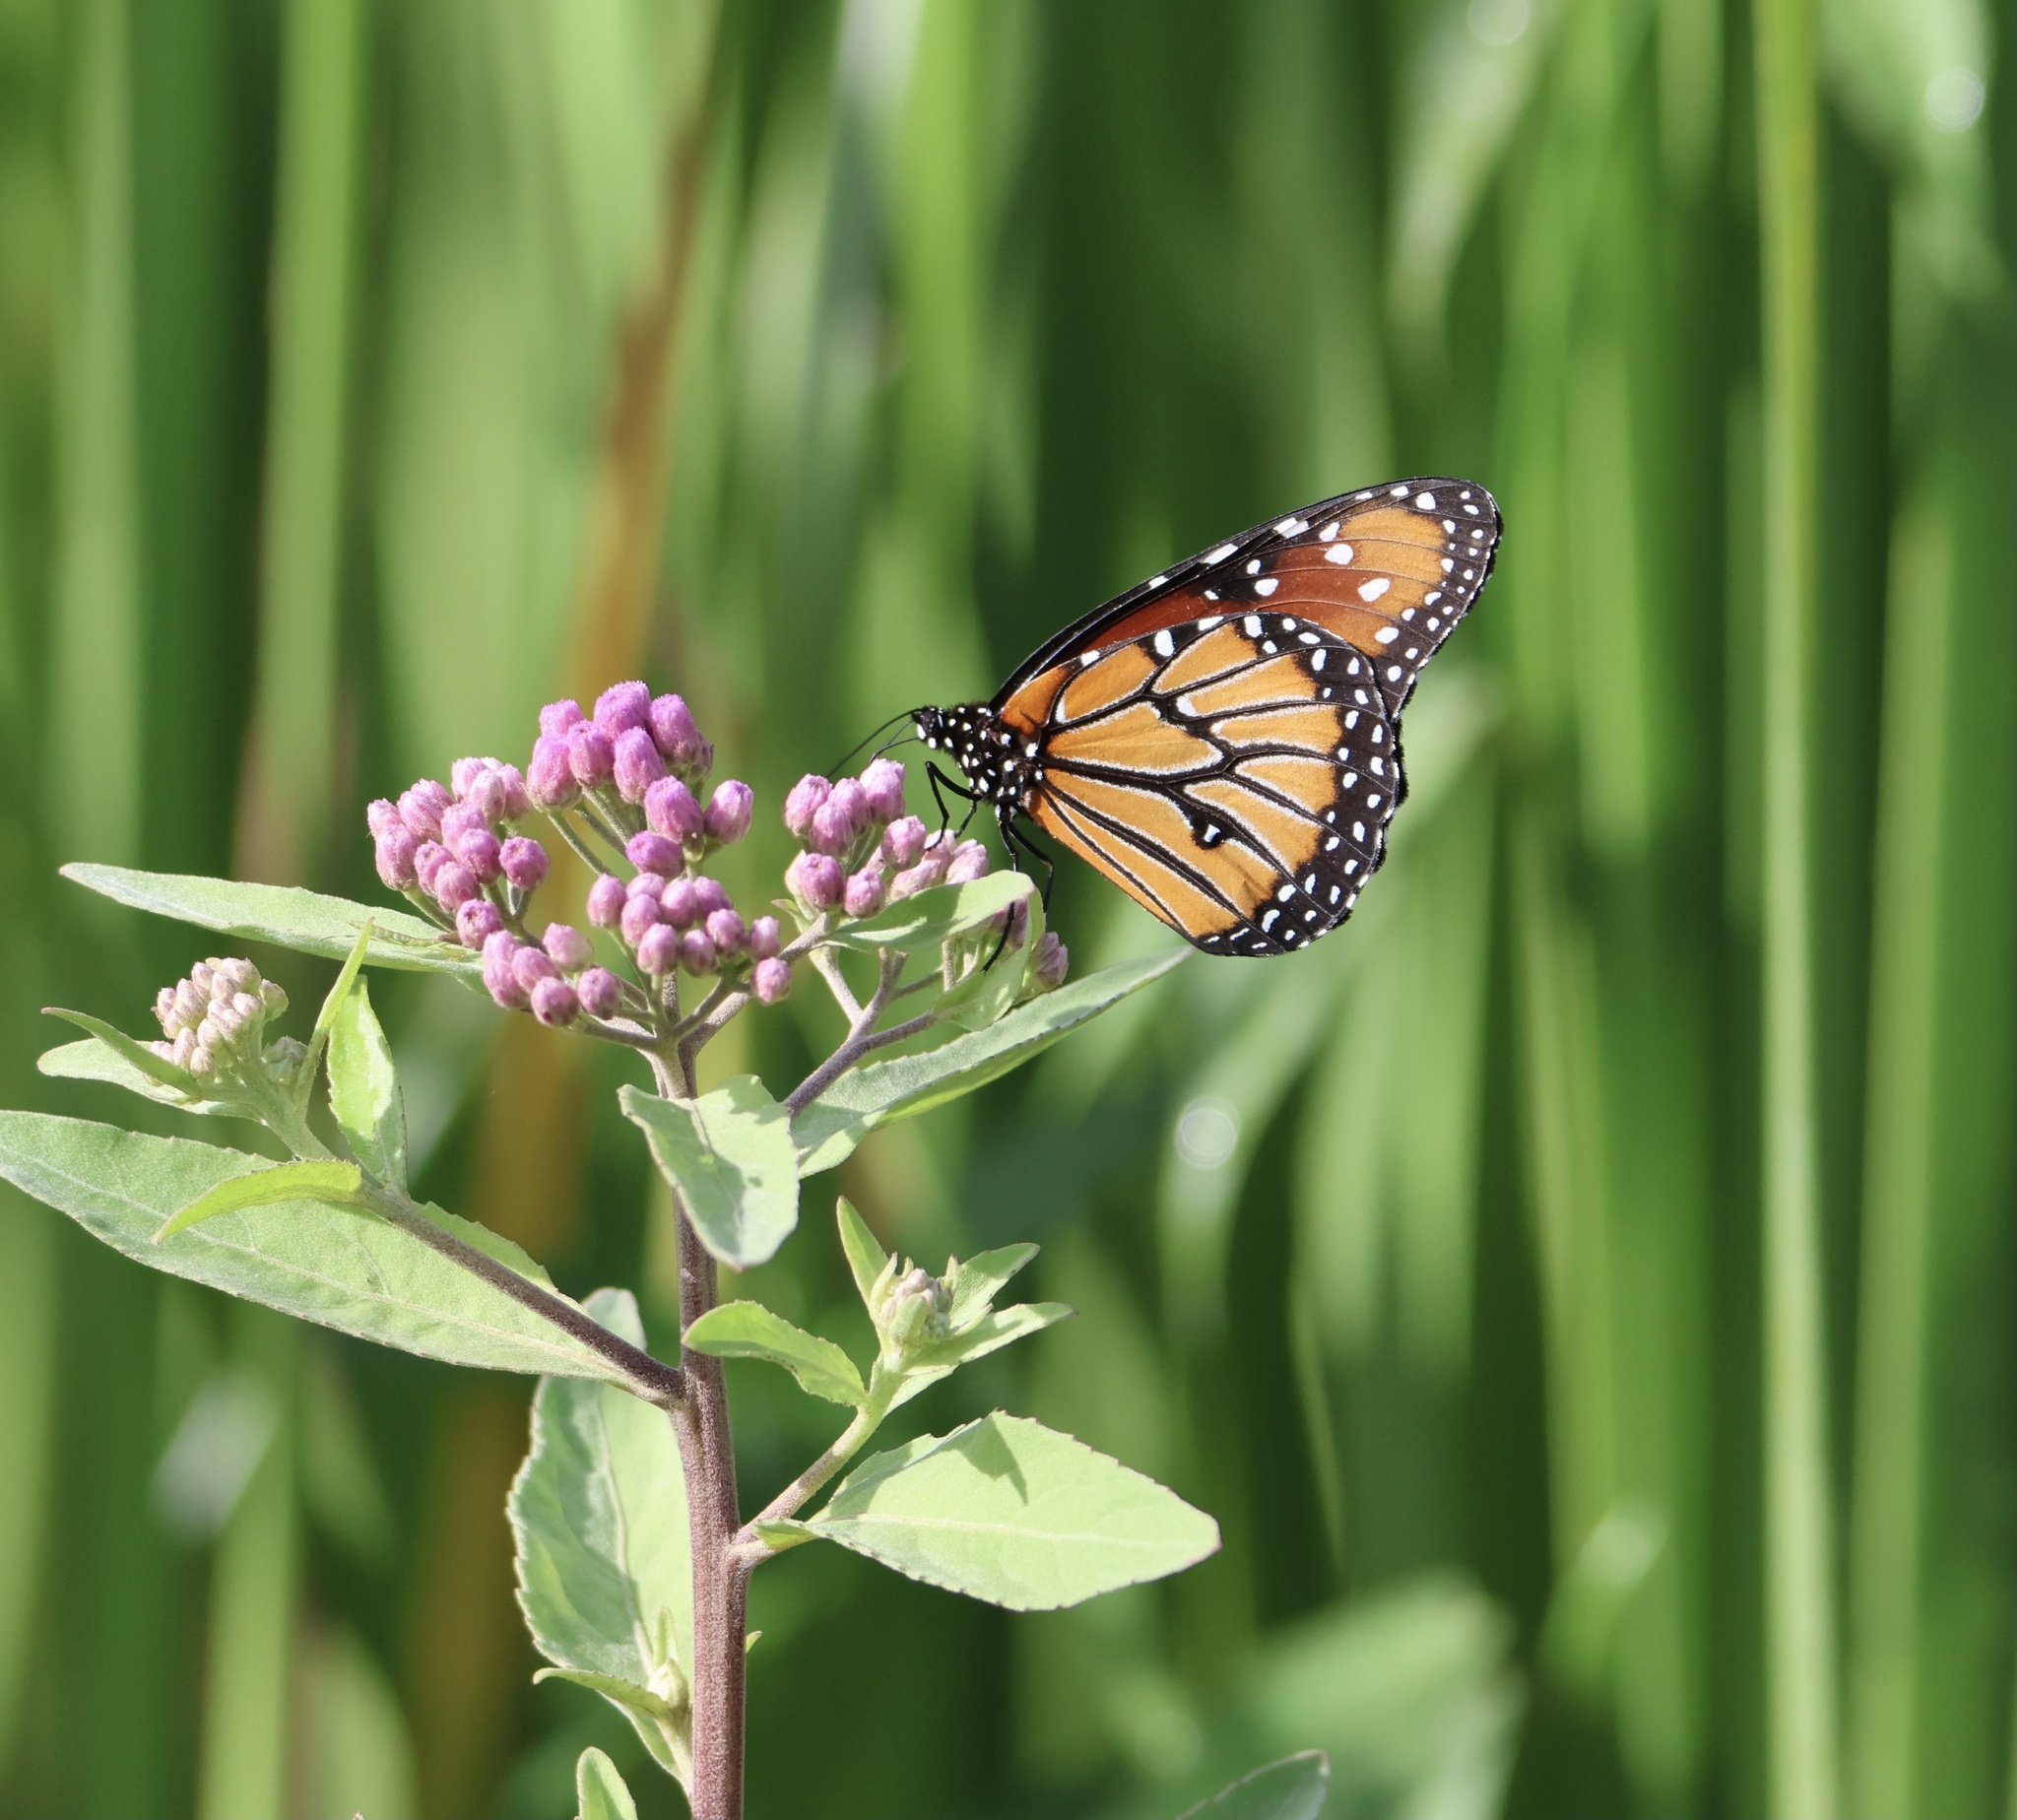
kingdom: Animalia
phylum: Arthropoda
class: Insecta
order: Lepidoptera
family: Nymphalidae
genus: Danaus
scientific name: Danaus gilippus
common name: Queen
